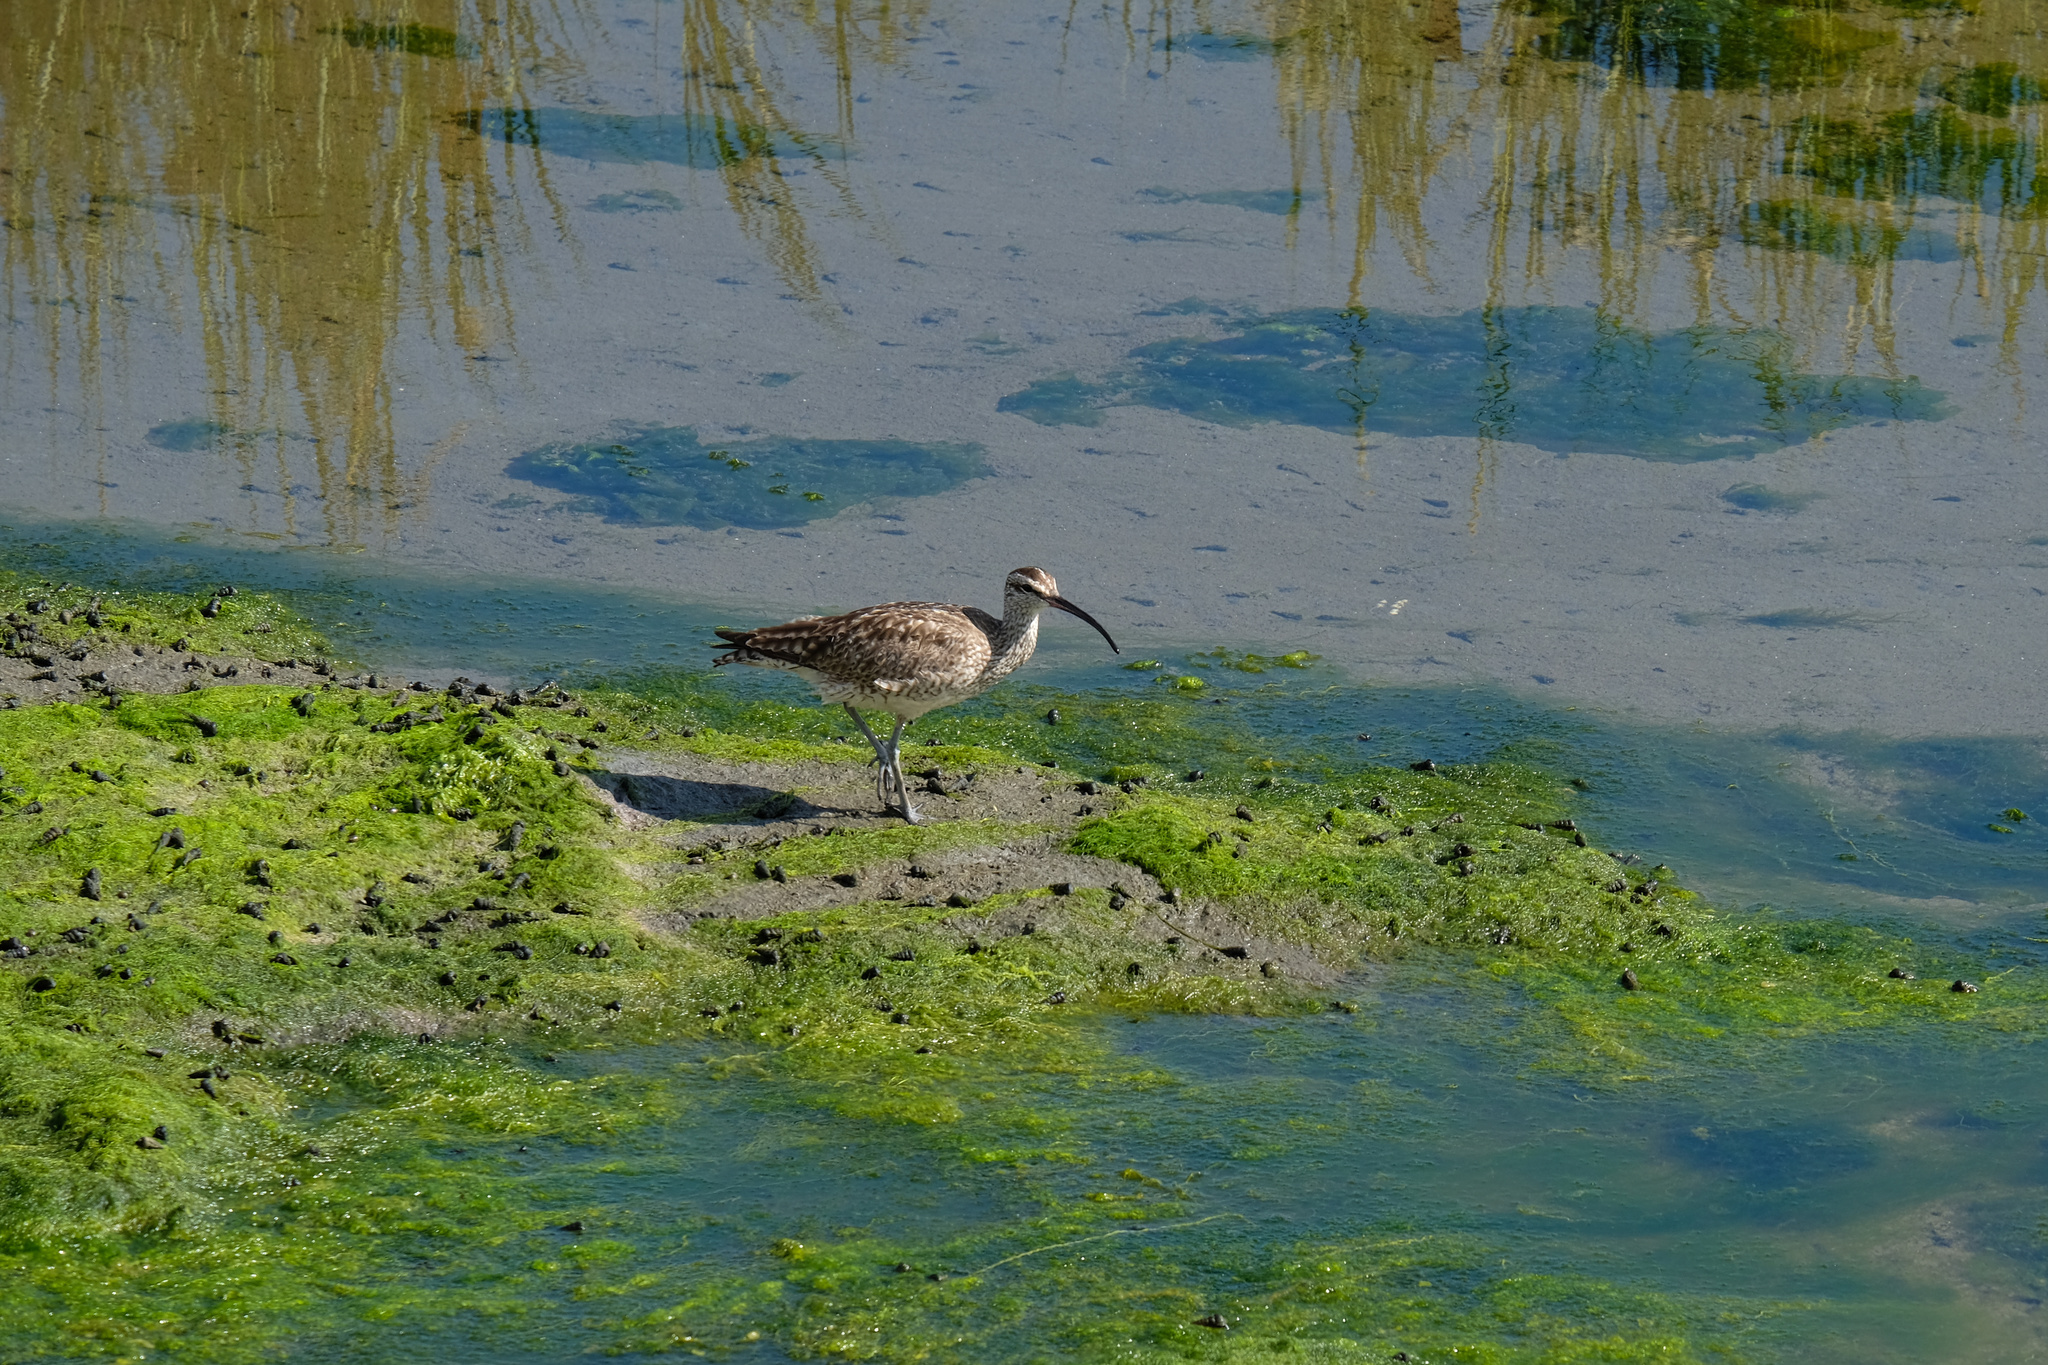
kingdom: Animalia
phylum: Chordata
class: Aves
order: Charadriiformes
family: Scolopacidae
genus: Numenius
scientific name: Numenius phaeopus
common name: Whimbrel
